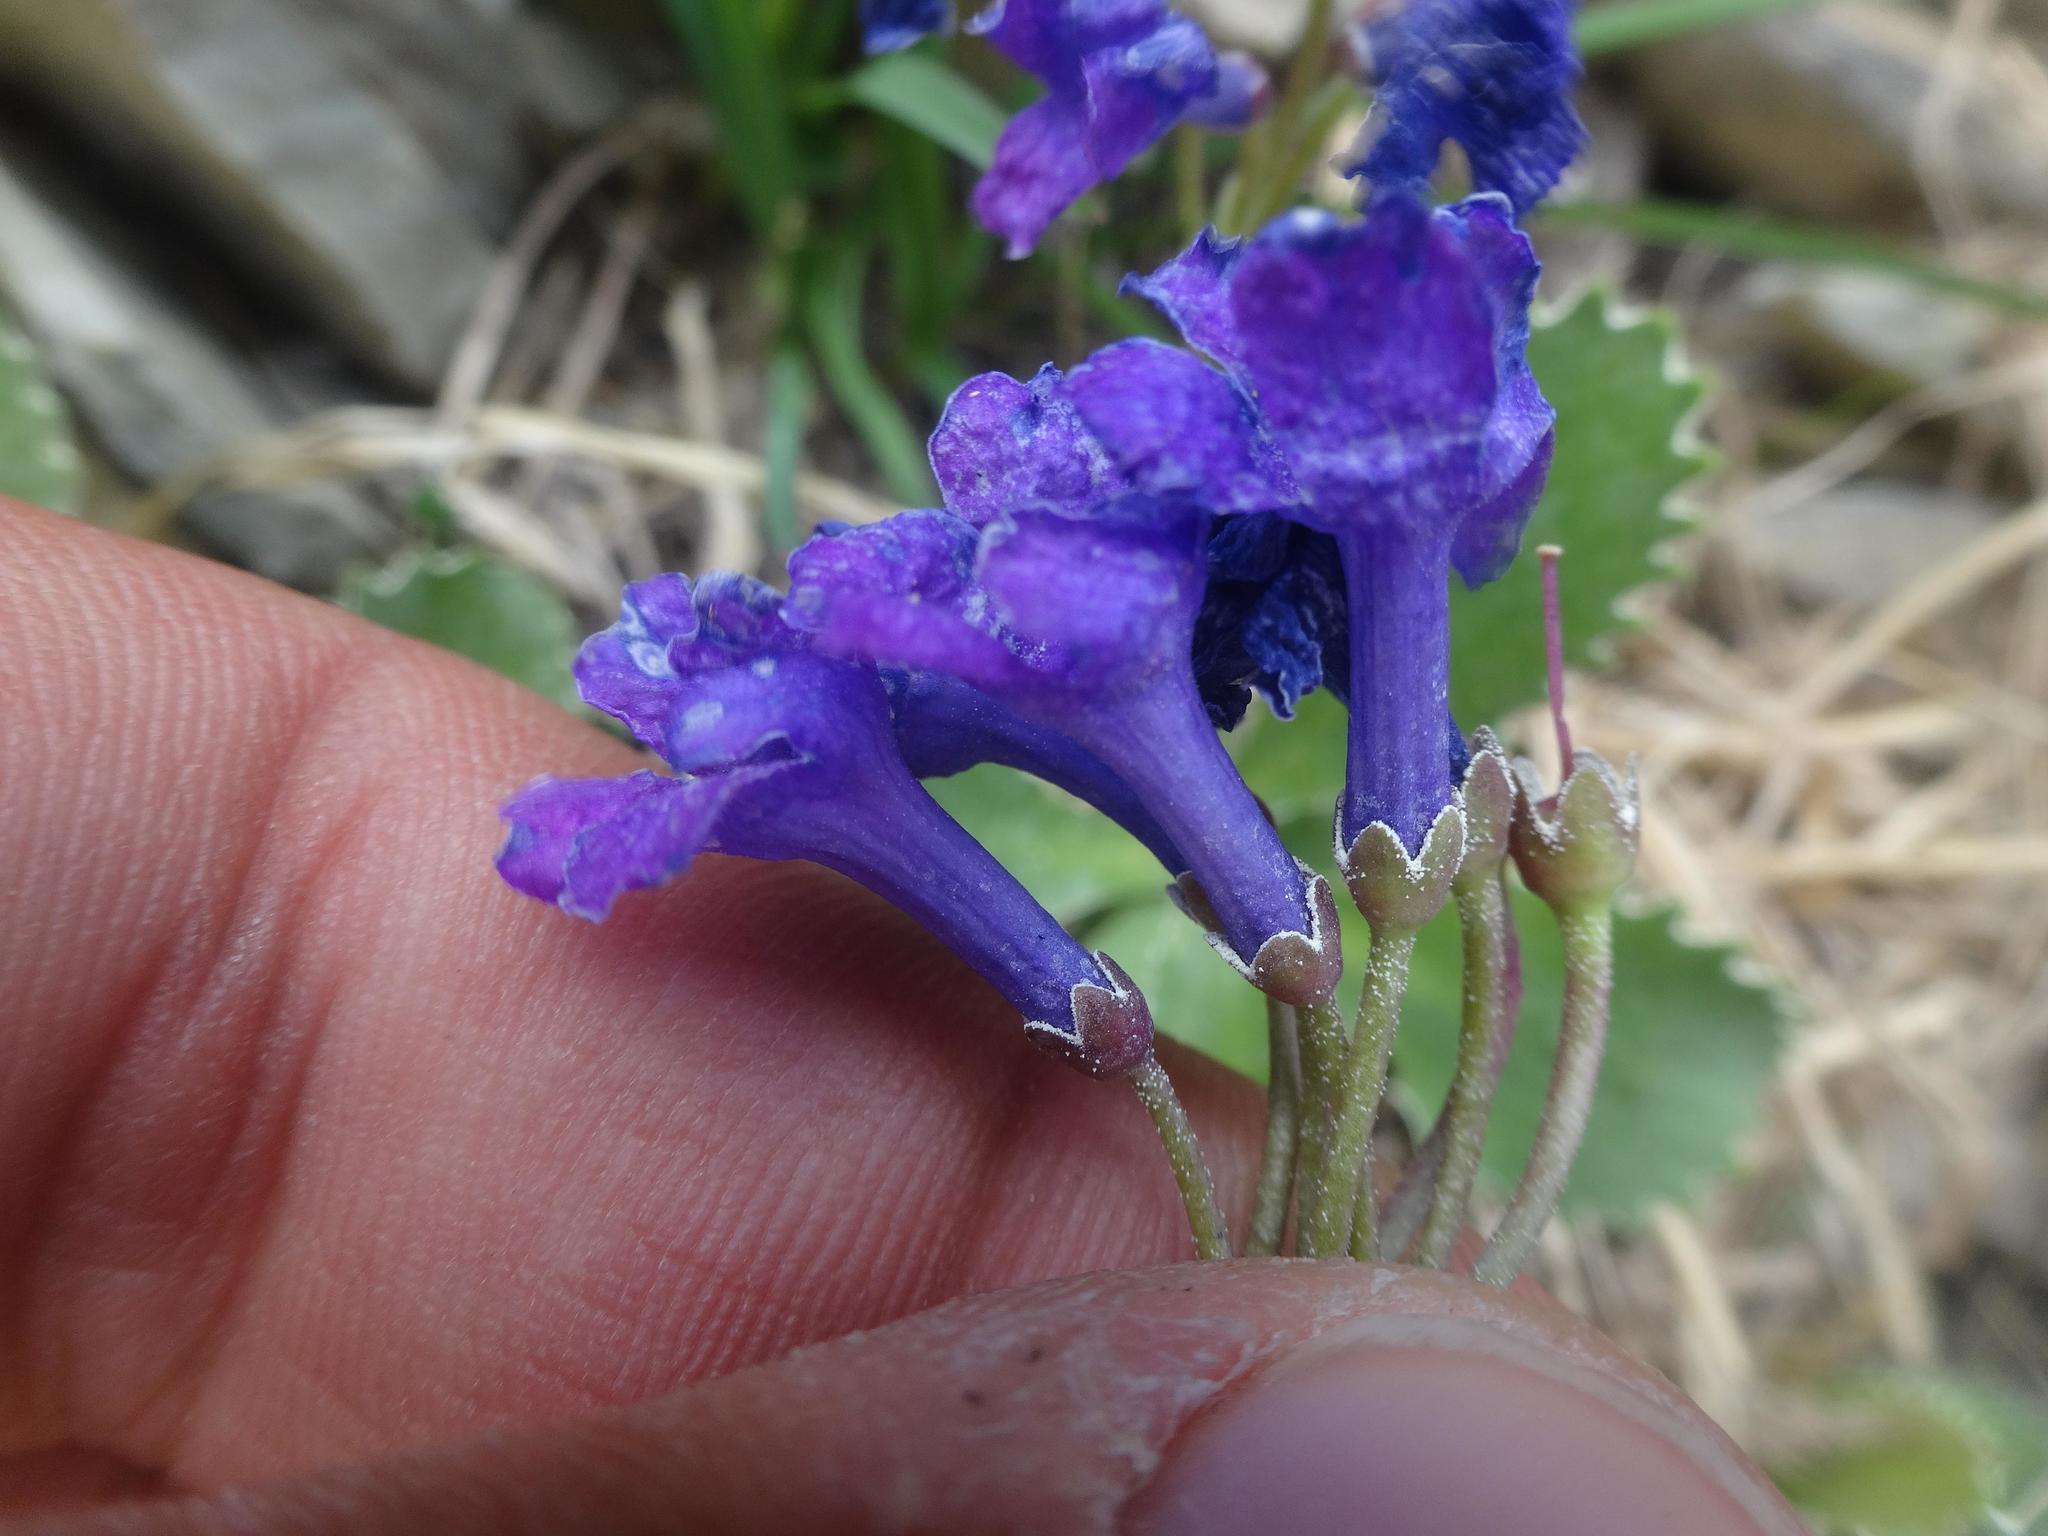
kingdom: Plantae
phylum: Tracheophyta
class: Magnoliopsida
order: Ericales
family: Primulaceae
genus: Primula
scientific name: Primula marginata
